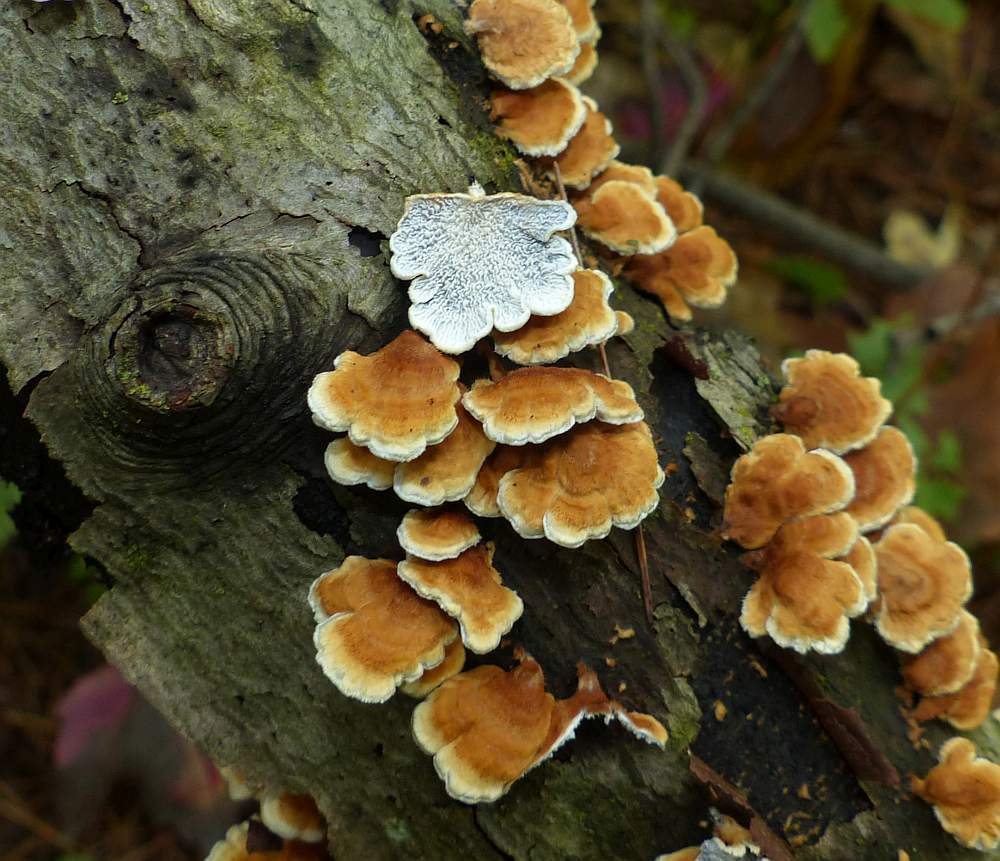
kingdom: Fungi
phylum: Basidiomycota
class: Agaricomycetes
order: Amylocorticiales
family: Amylocorticiaceae
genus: Plicaturopsis
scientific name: Plicaturopsis crispa
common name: Crimped gill
